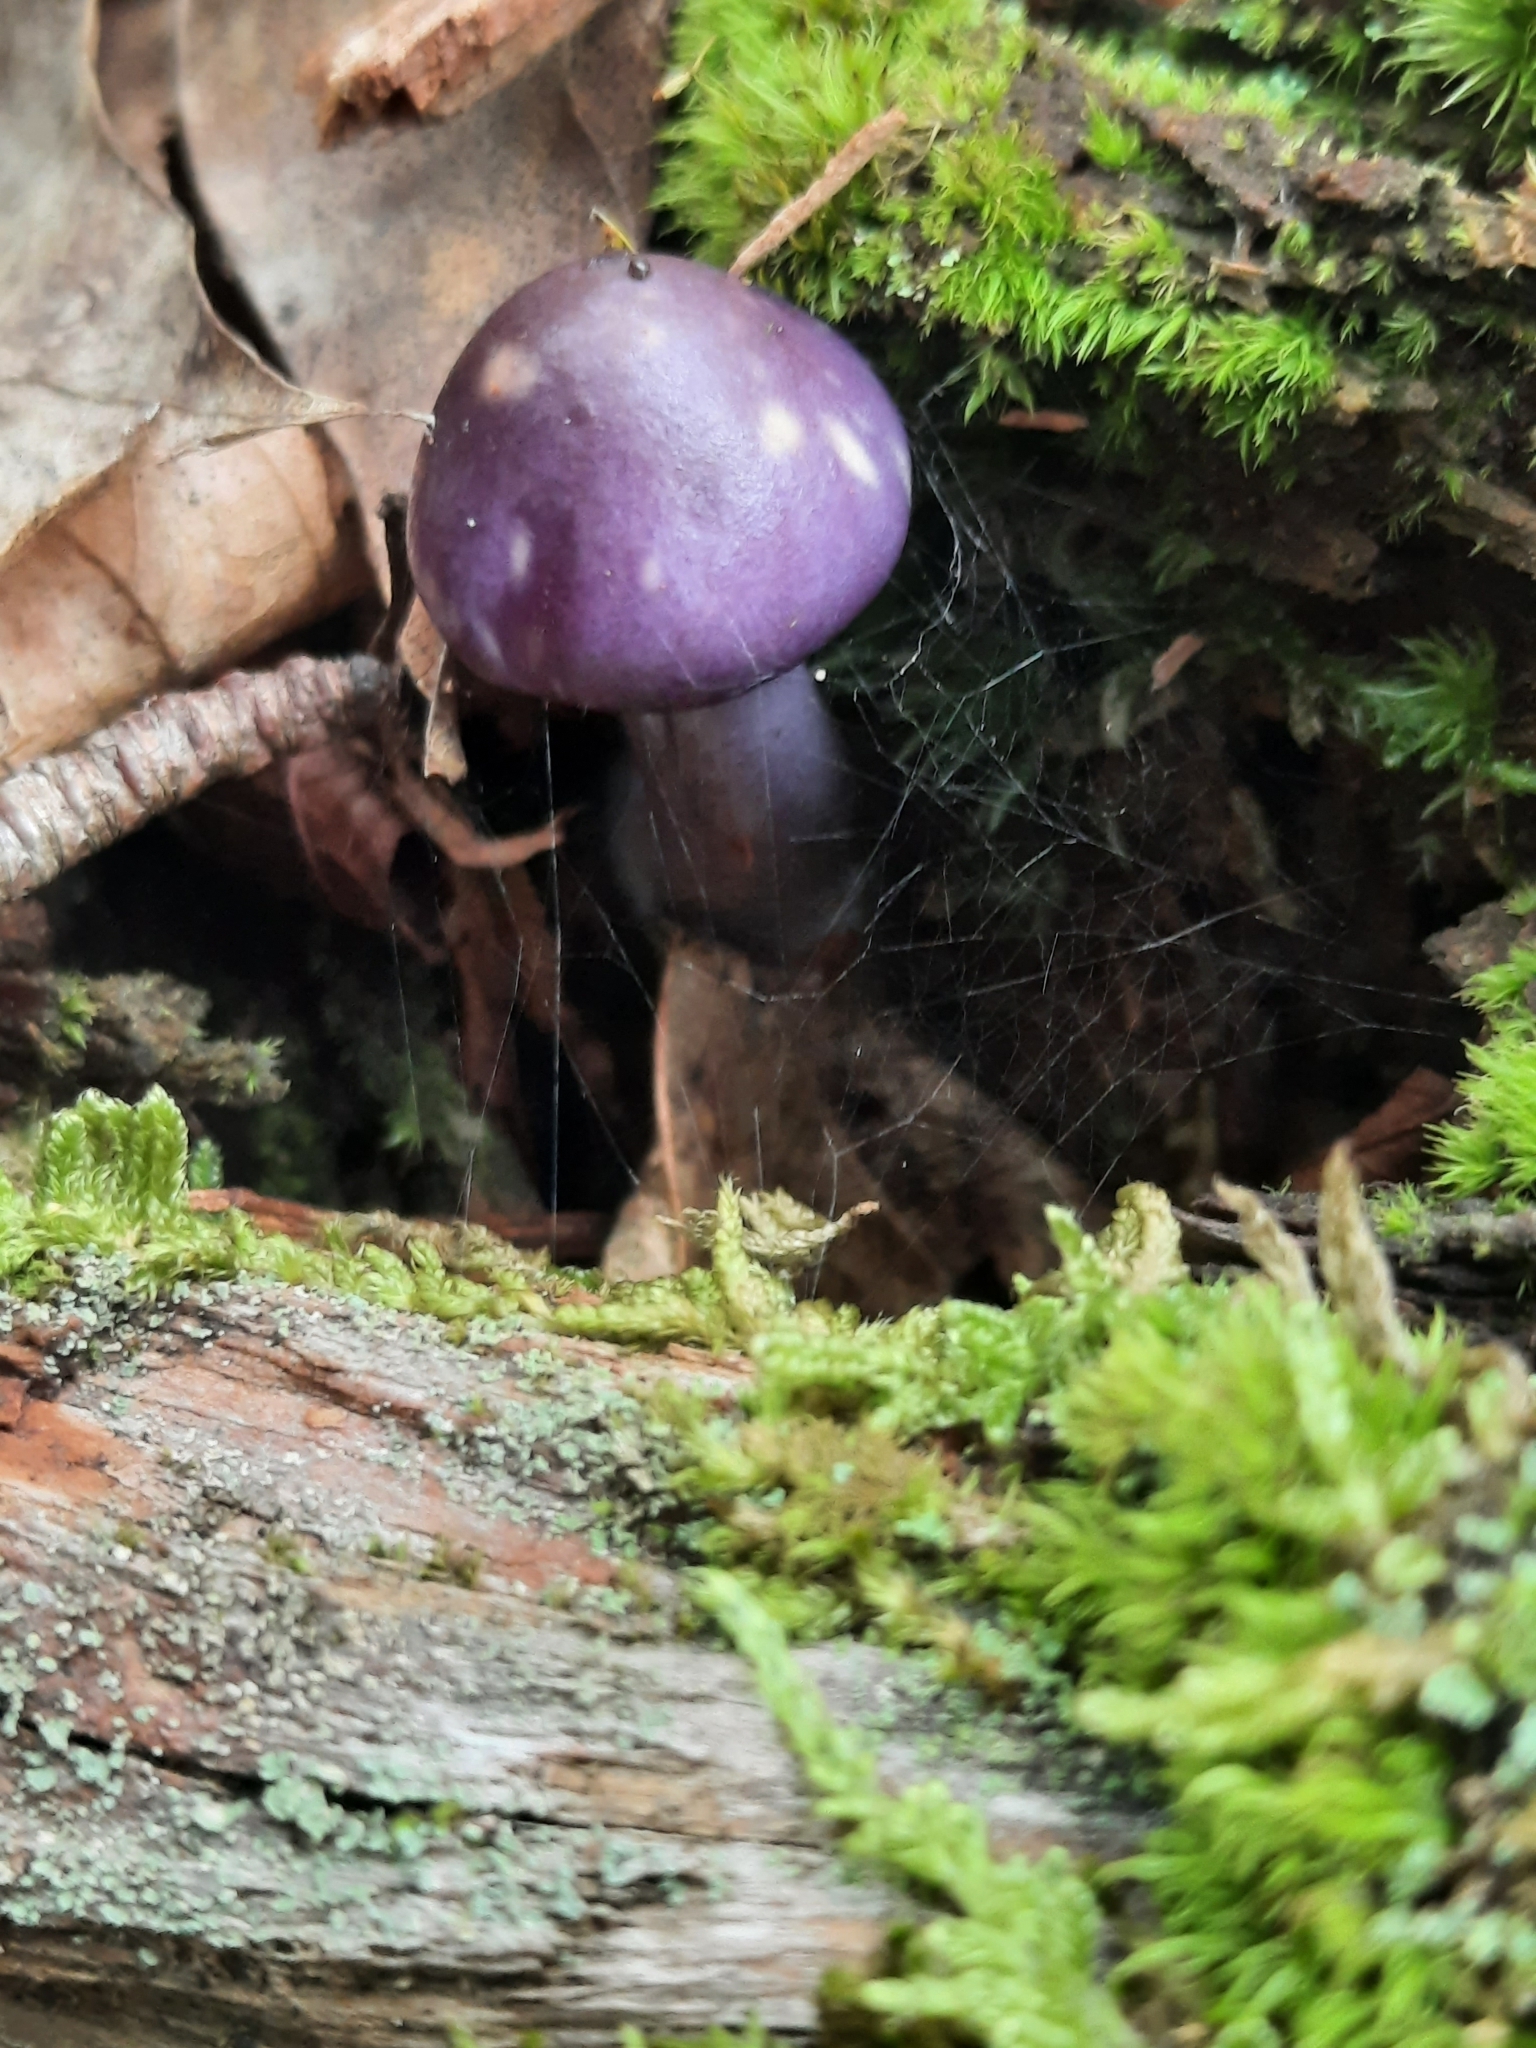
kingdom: Fungi
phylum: Basidiomycota
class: Agaricomycetes
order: Agaricales
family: Cortinariaceae
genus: Cortinarius
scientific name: Cortinarius iodes
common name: Viscid violet cort
